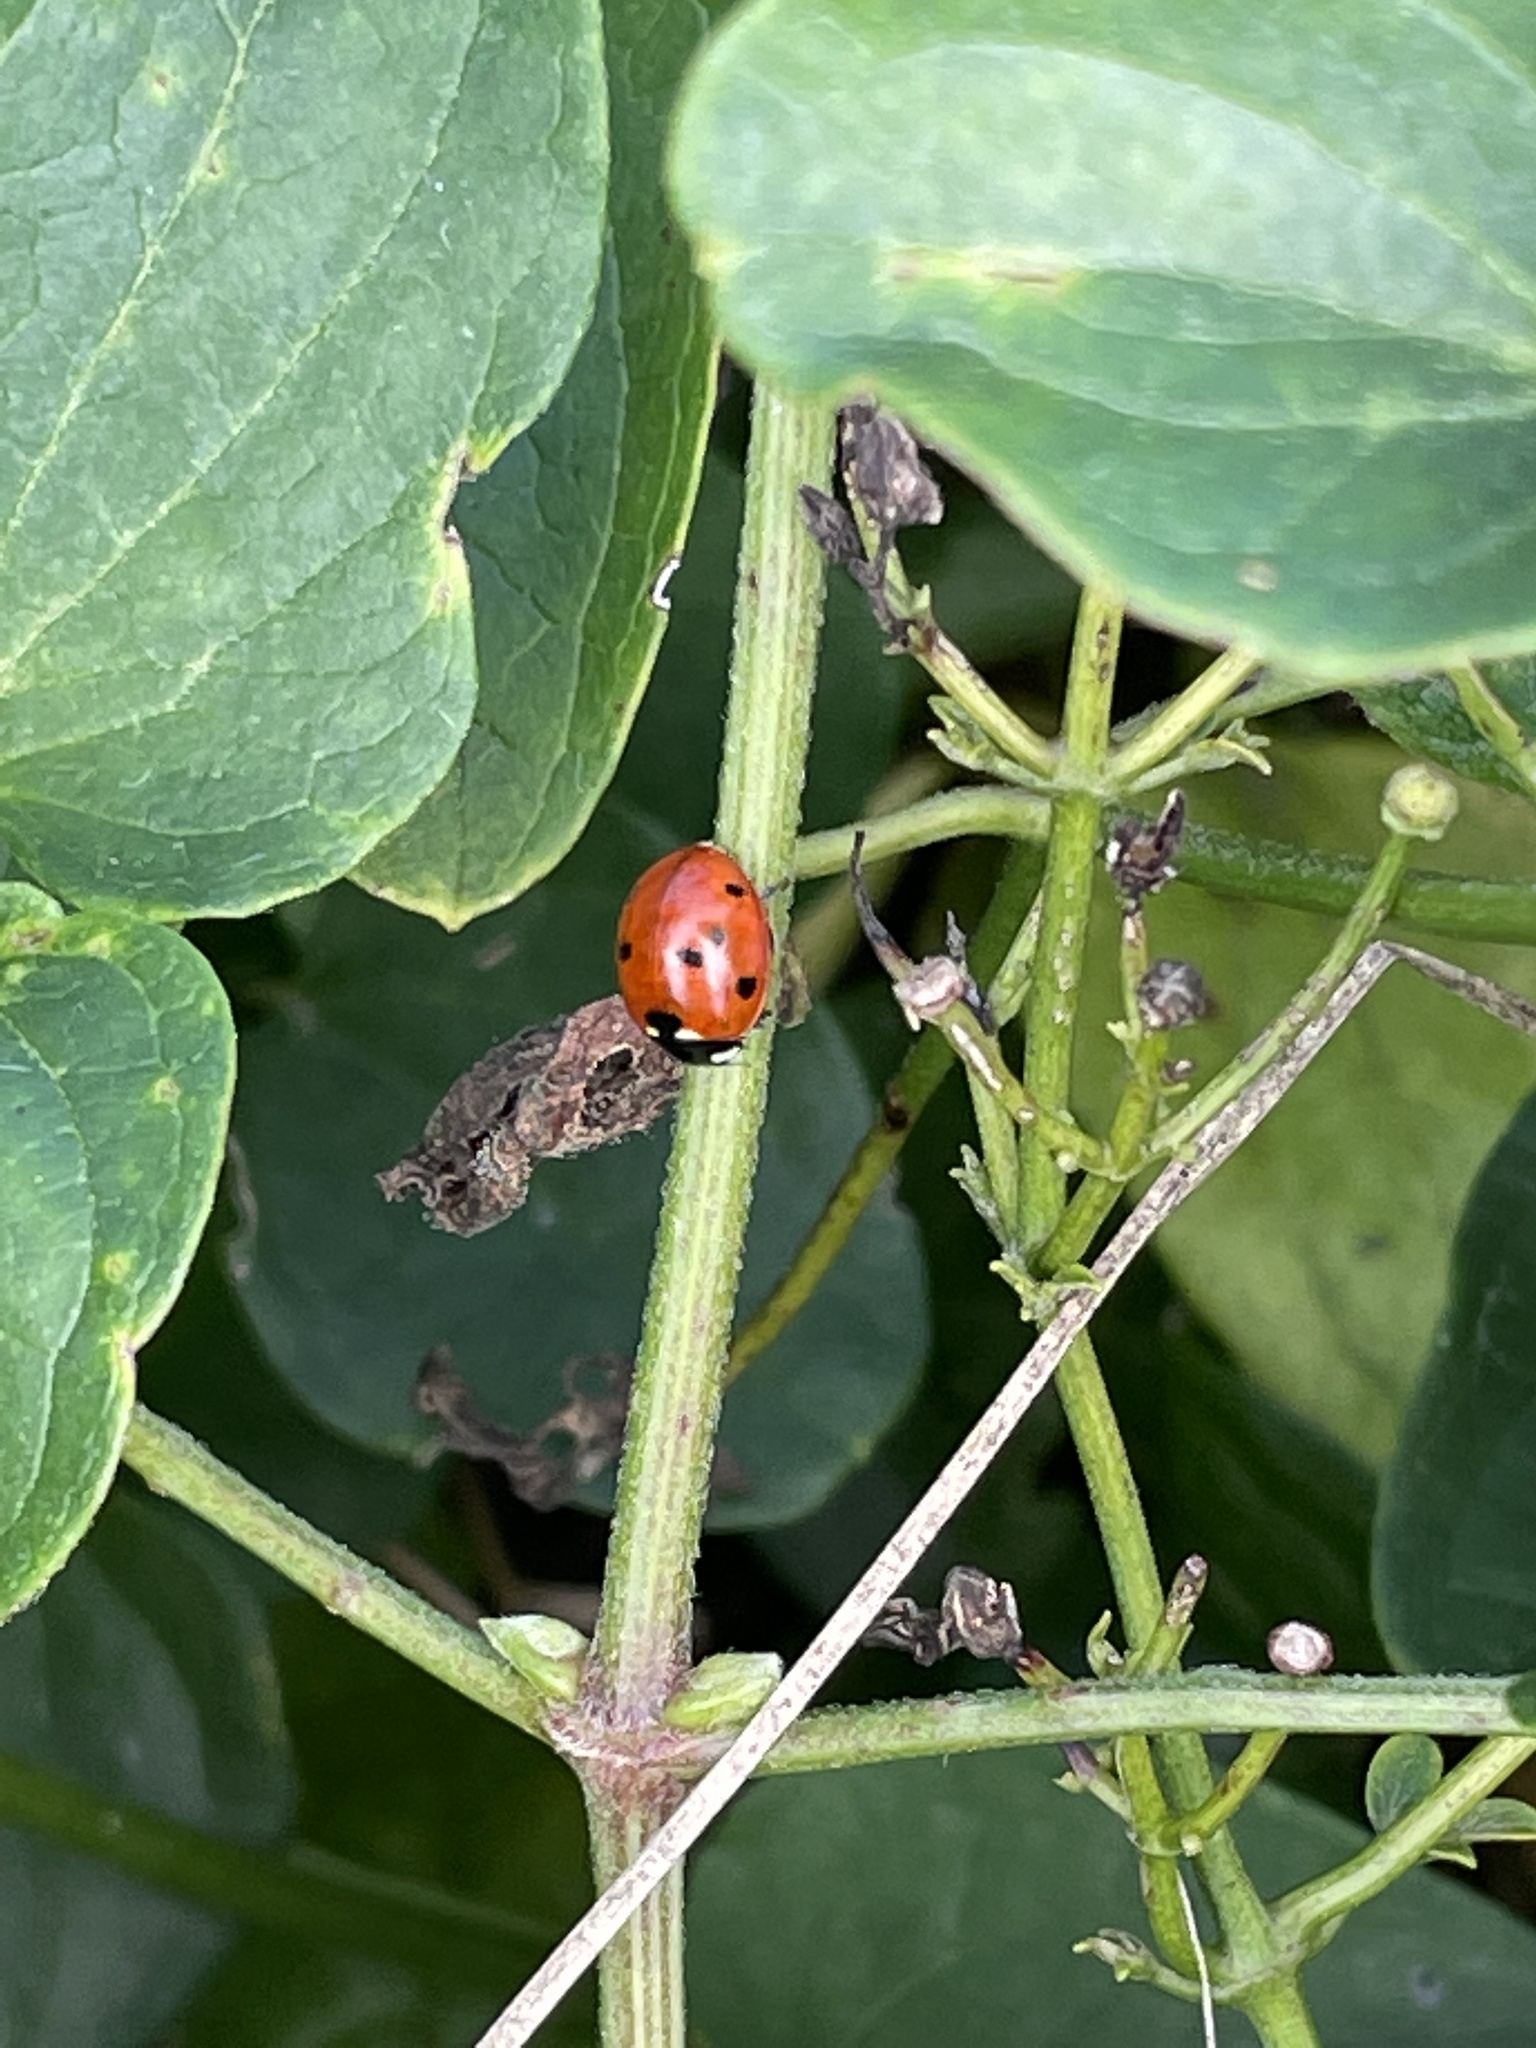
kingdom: Animalia
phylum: Arthropoda
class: Insecta
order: Coleoptera
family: Coccinellidae
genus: Coccinella
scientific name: Coccinella septempunctata
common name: Sevenspotted lady beetle
